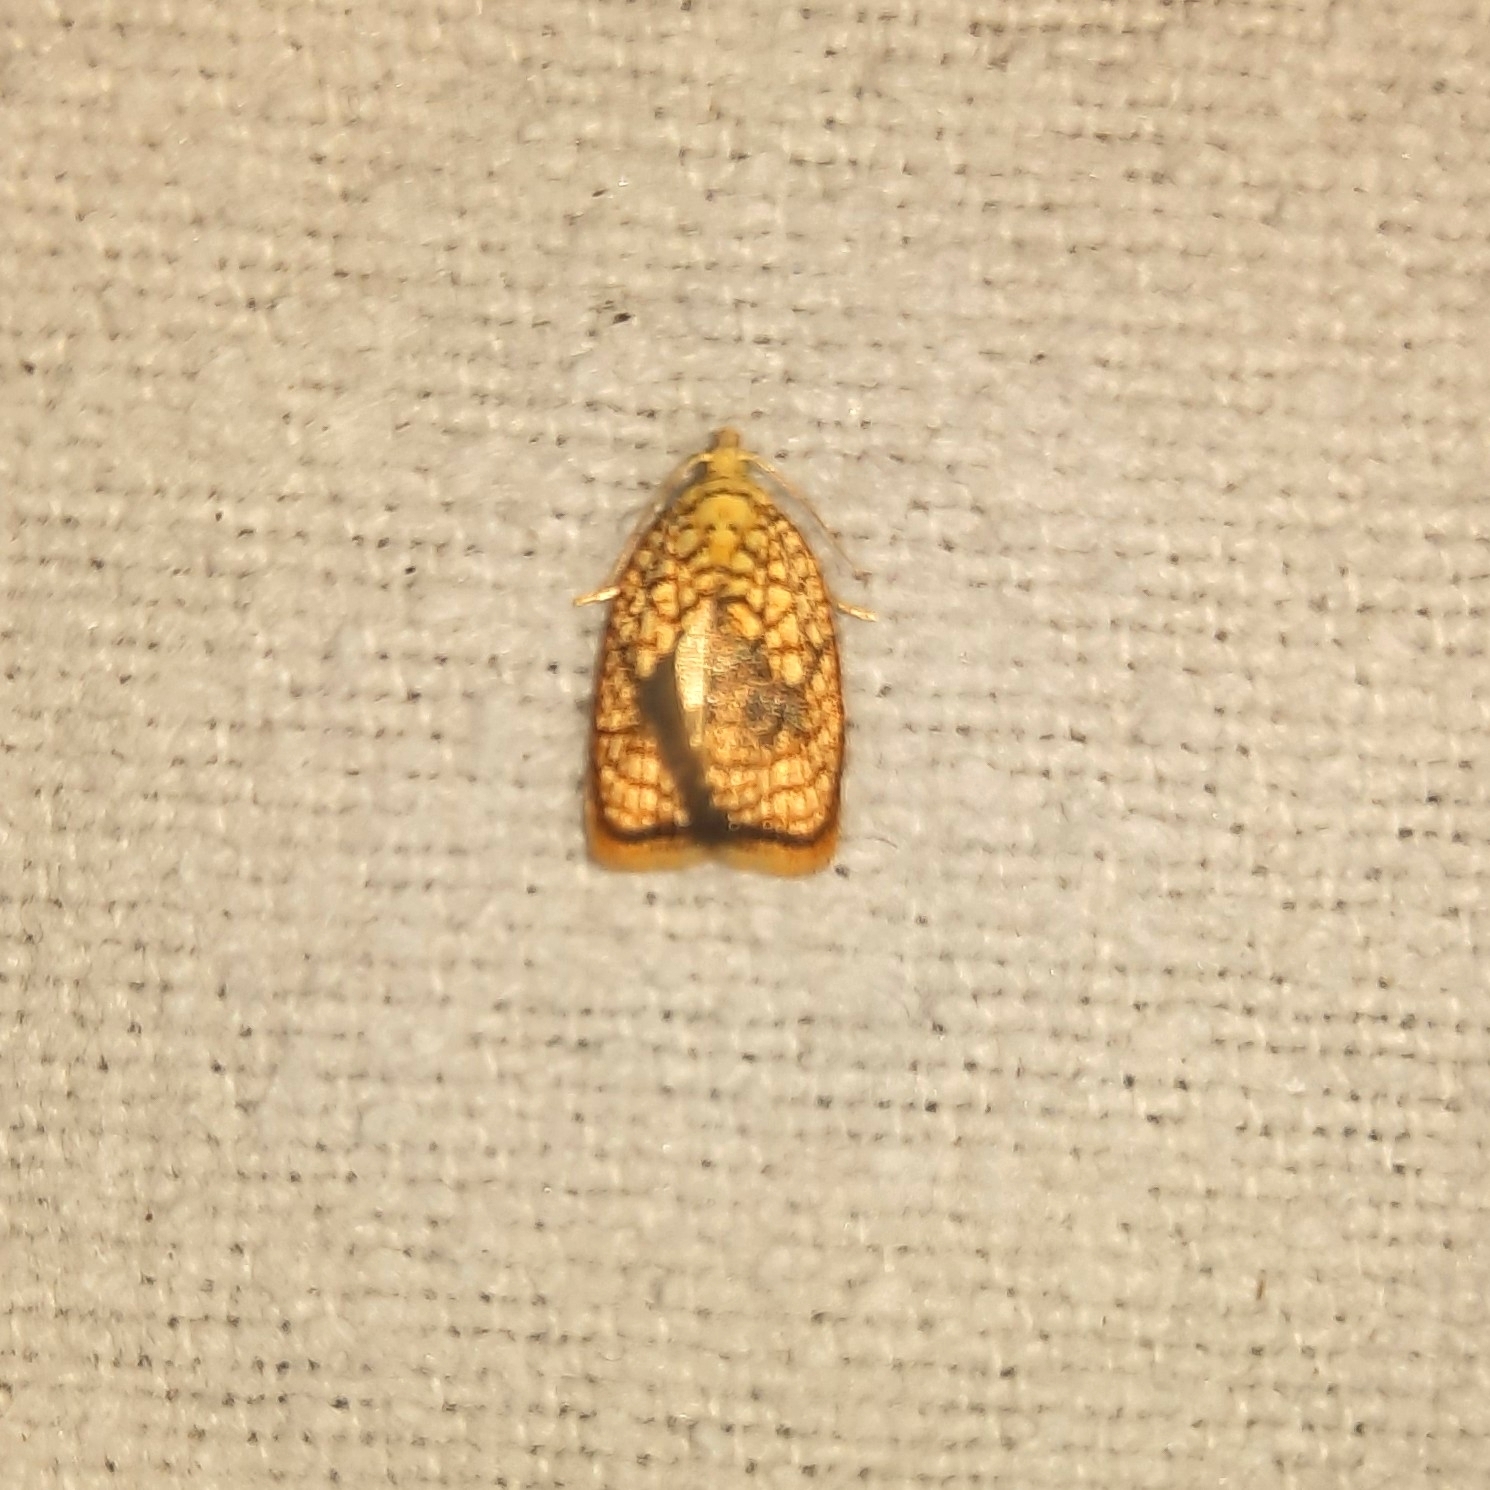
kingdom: Animalia
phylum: Arthropoda
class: Insecta
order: Lepidoptera
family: Tortricidae
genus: Acleris
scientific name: Acleris forsskaleana
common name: Maple button
